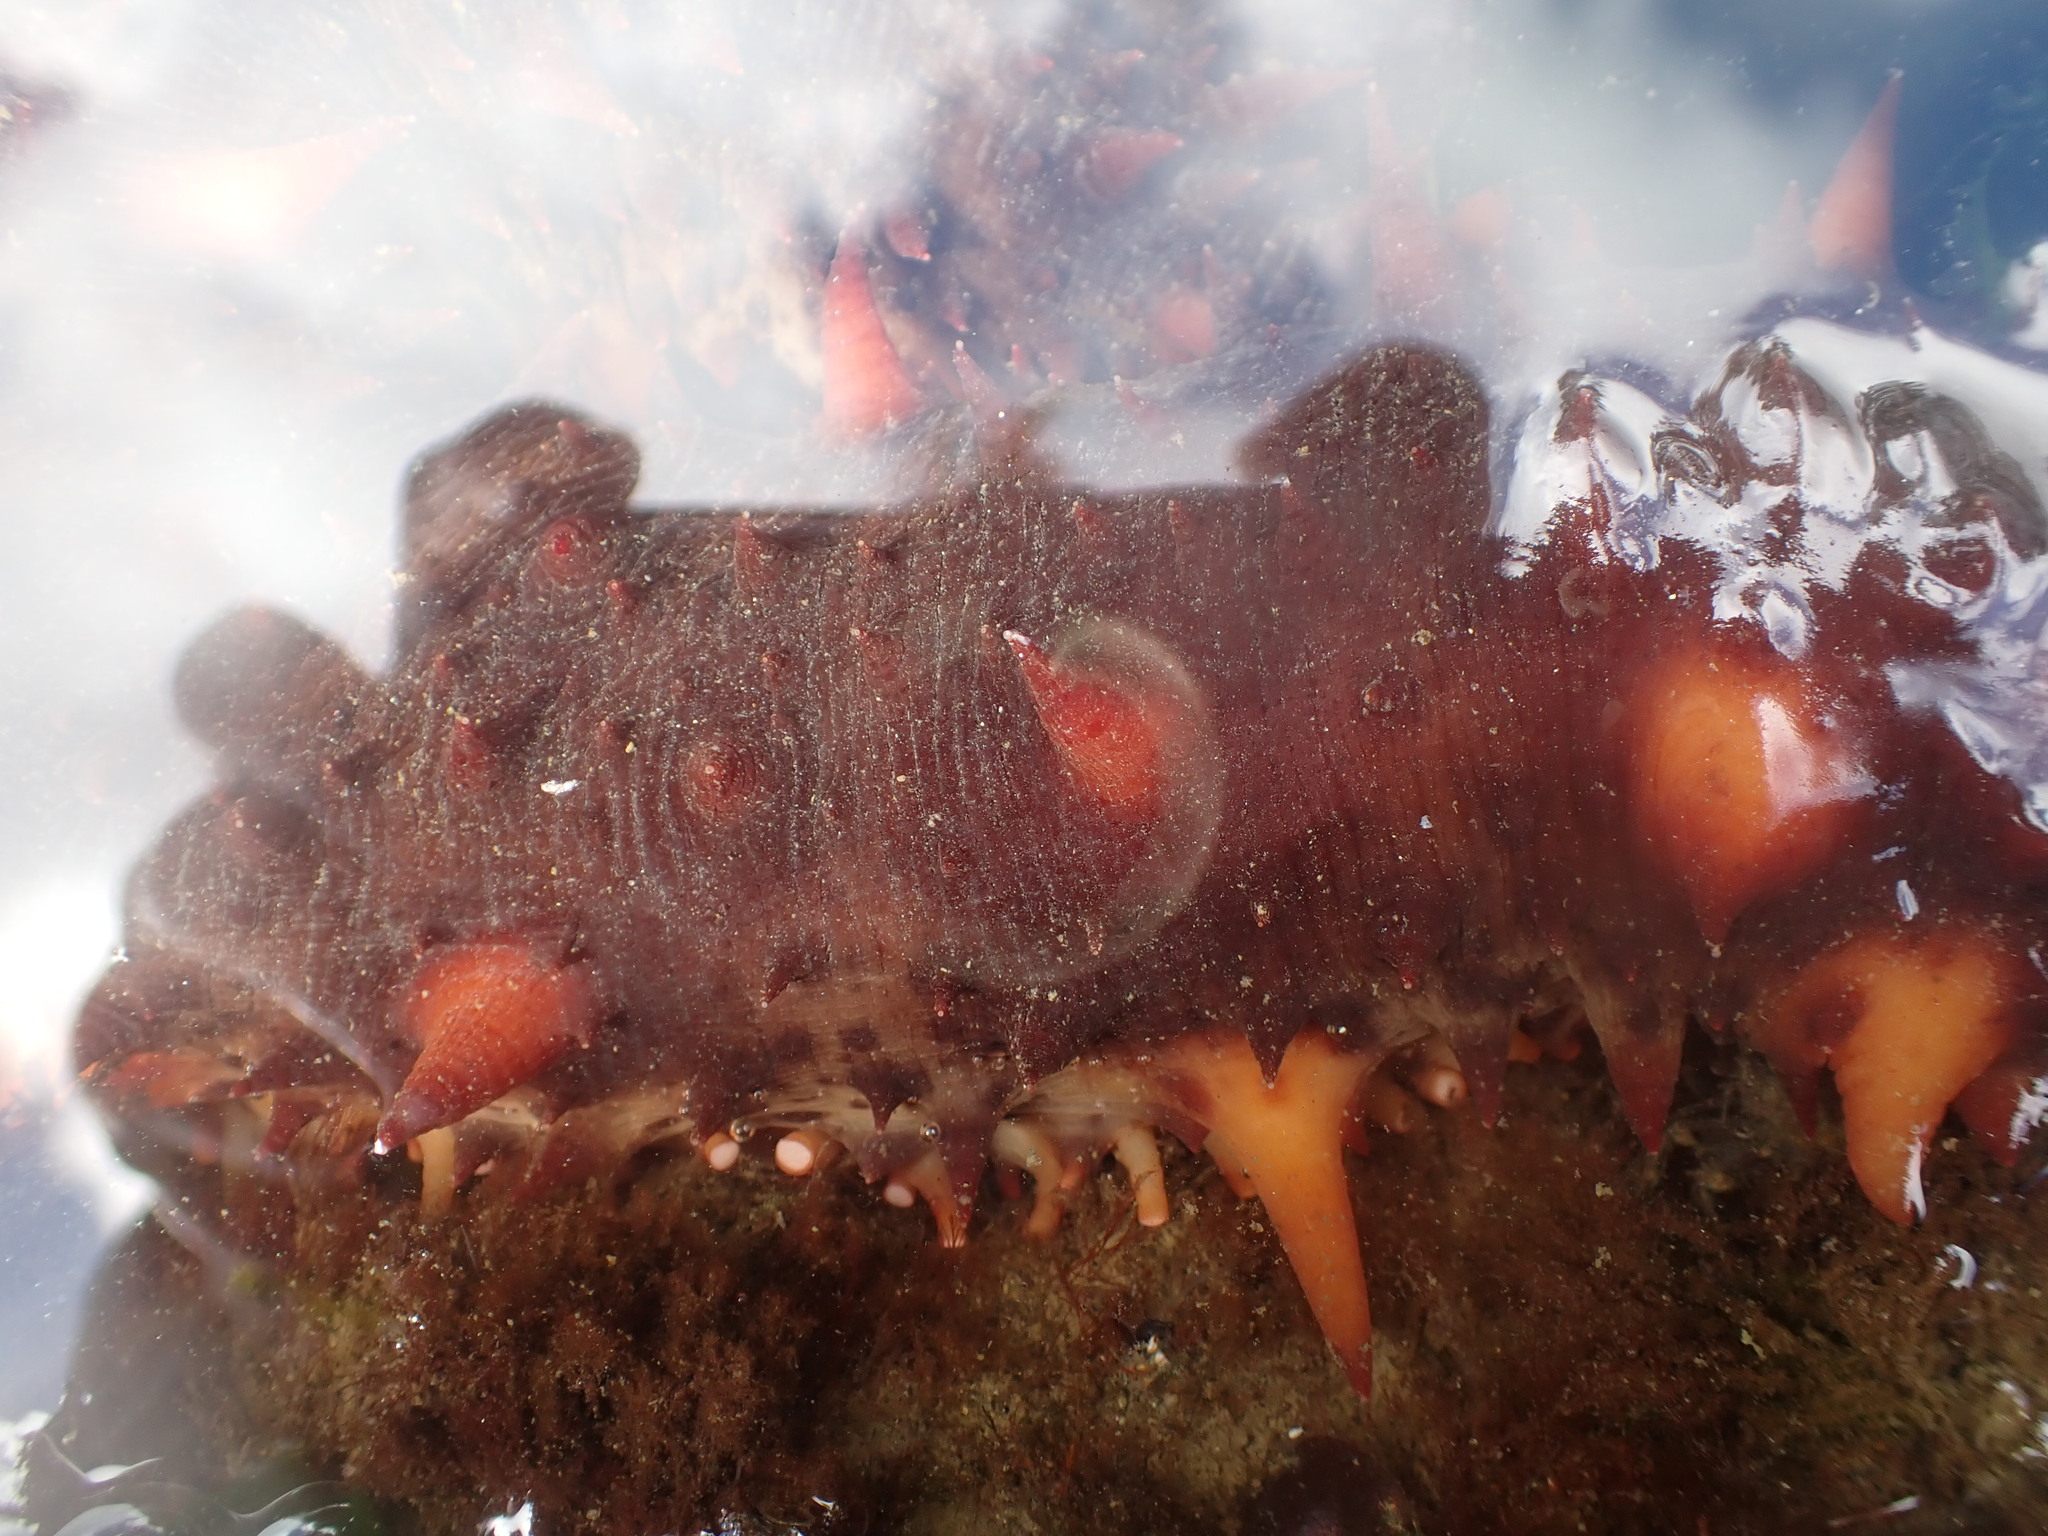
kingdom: Animalia
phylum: Echinodermata
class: Holothuroidea
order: Synallactida
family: Stichopodidae
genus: Apostichopus
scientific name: Apostichopus californicus
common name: California sea cucumber
